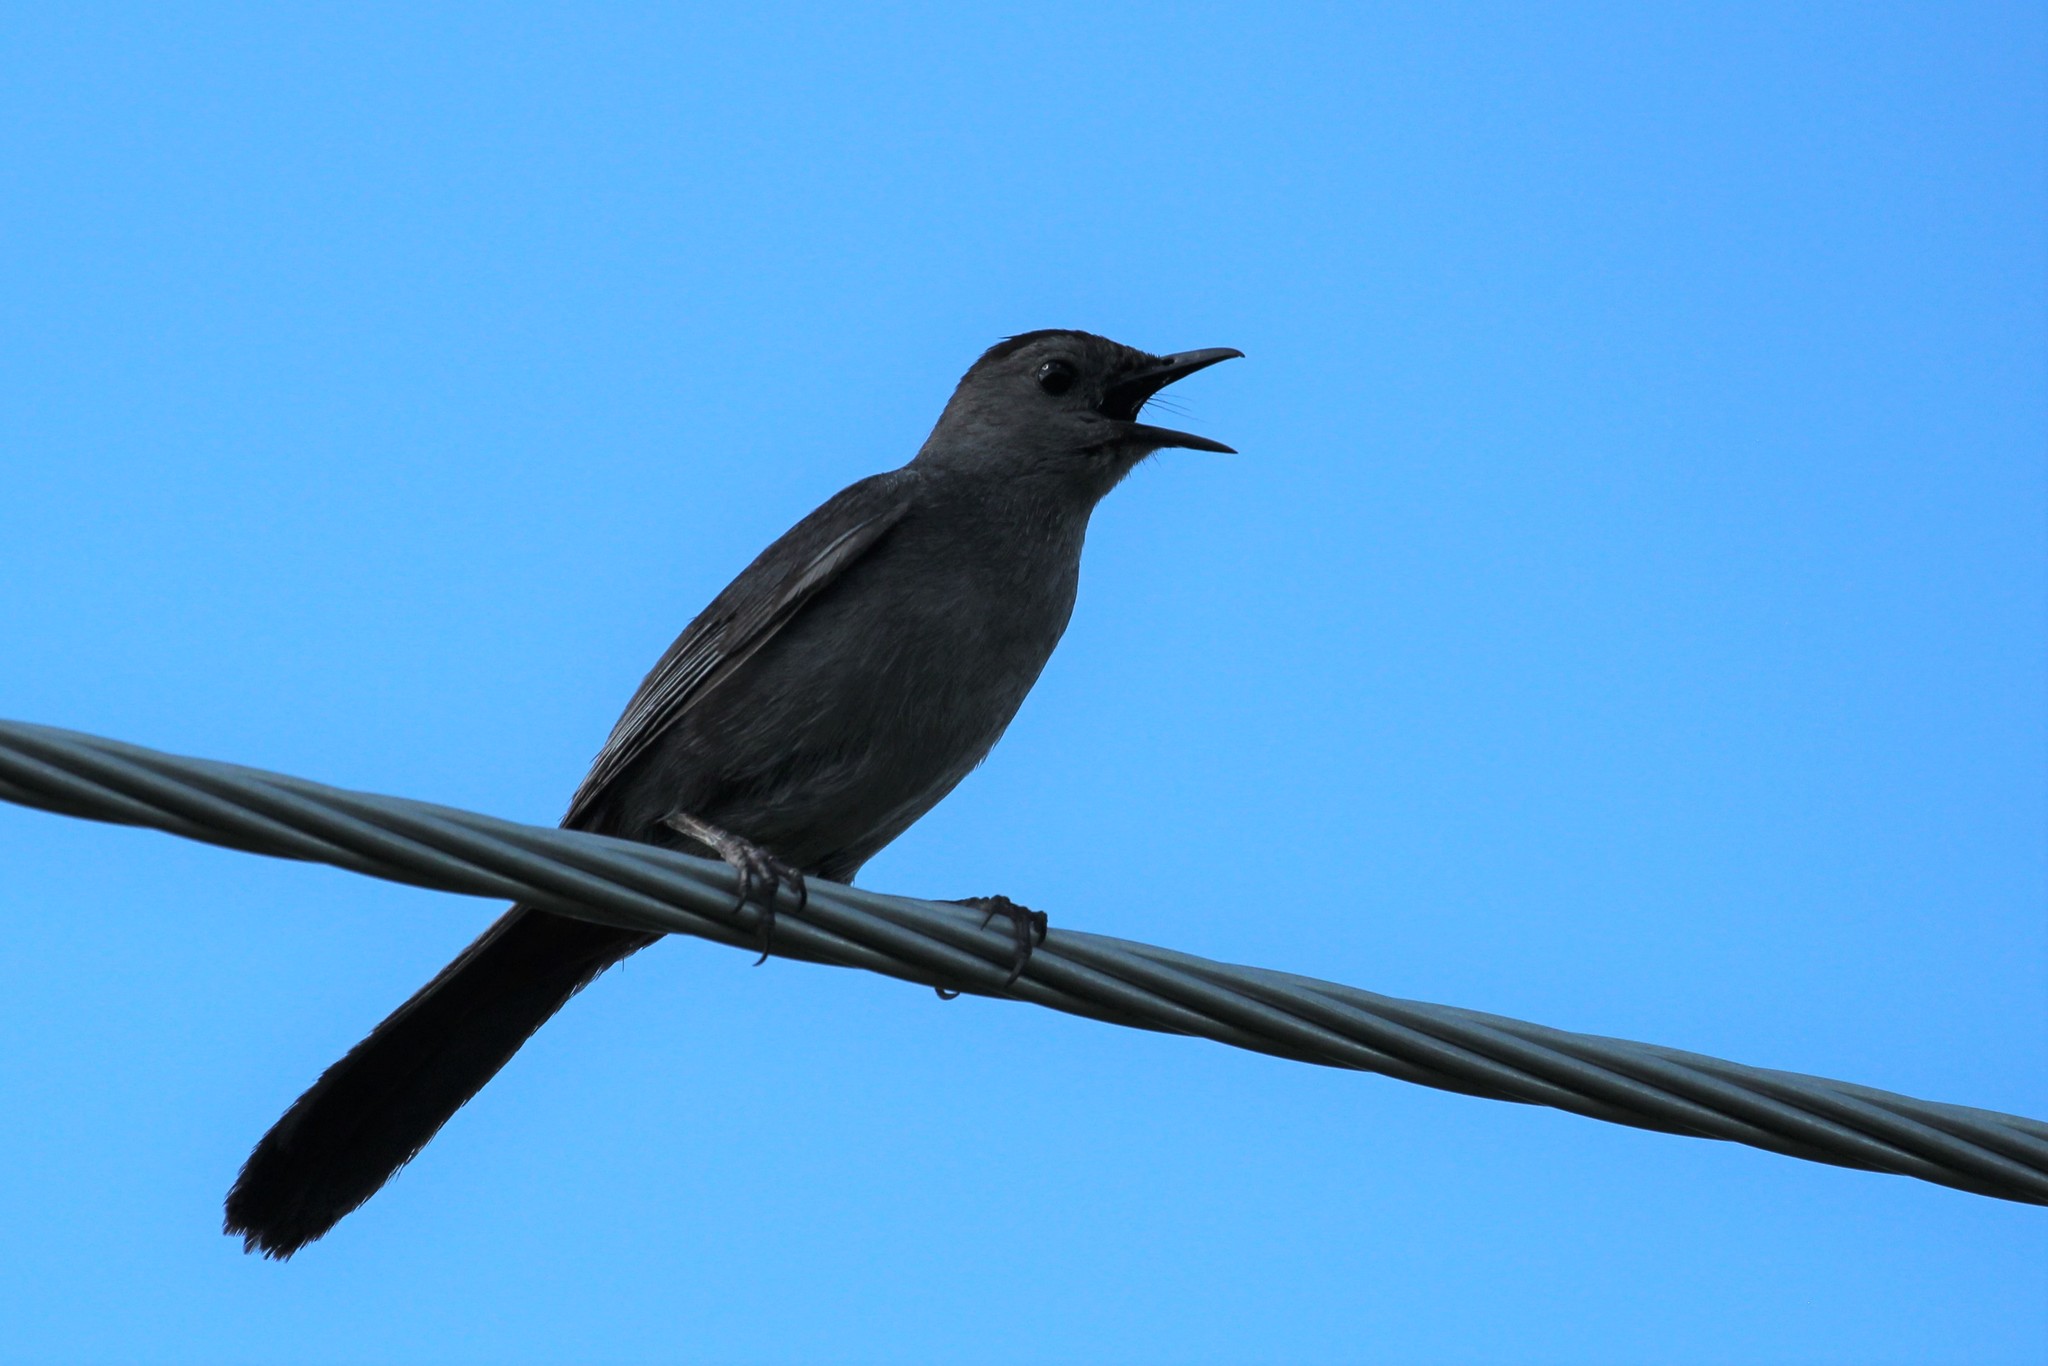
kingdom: Animalia
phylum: Chordata
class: Aves
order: Passeriformes
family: Mimidae
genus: Dumetella
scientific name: Dumetella carolinensis
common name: Gray catbird
